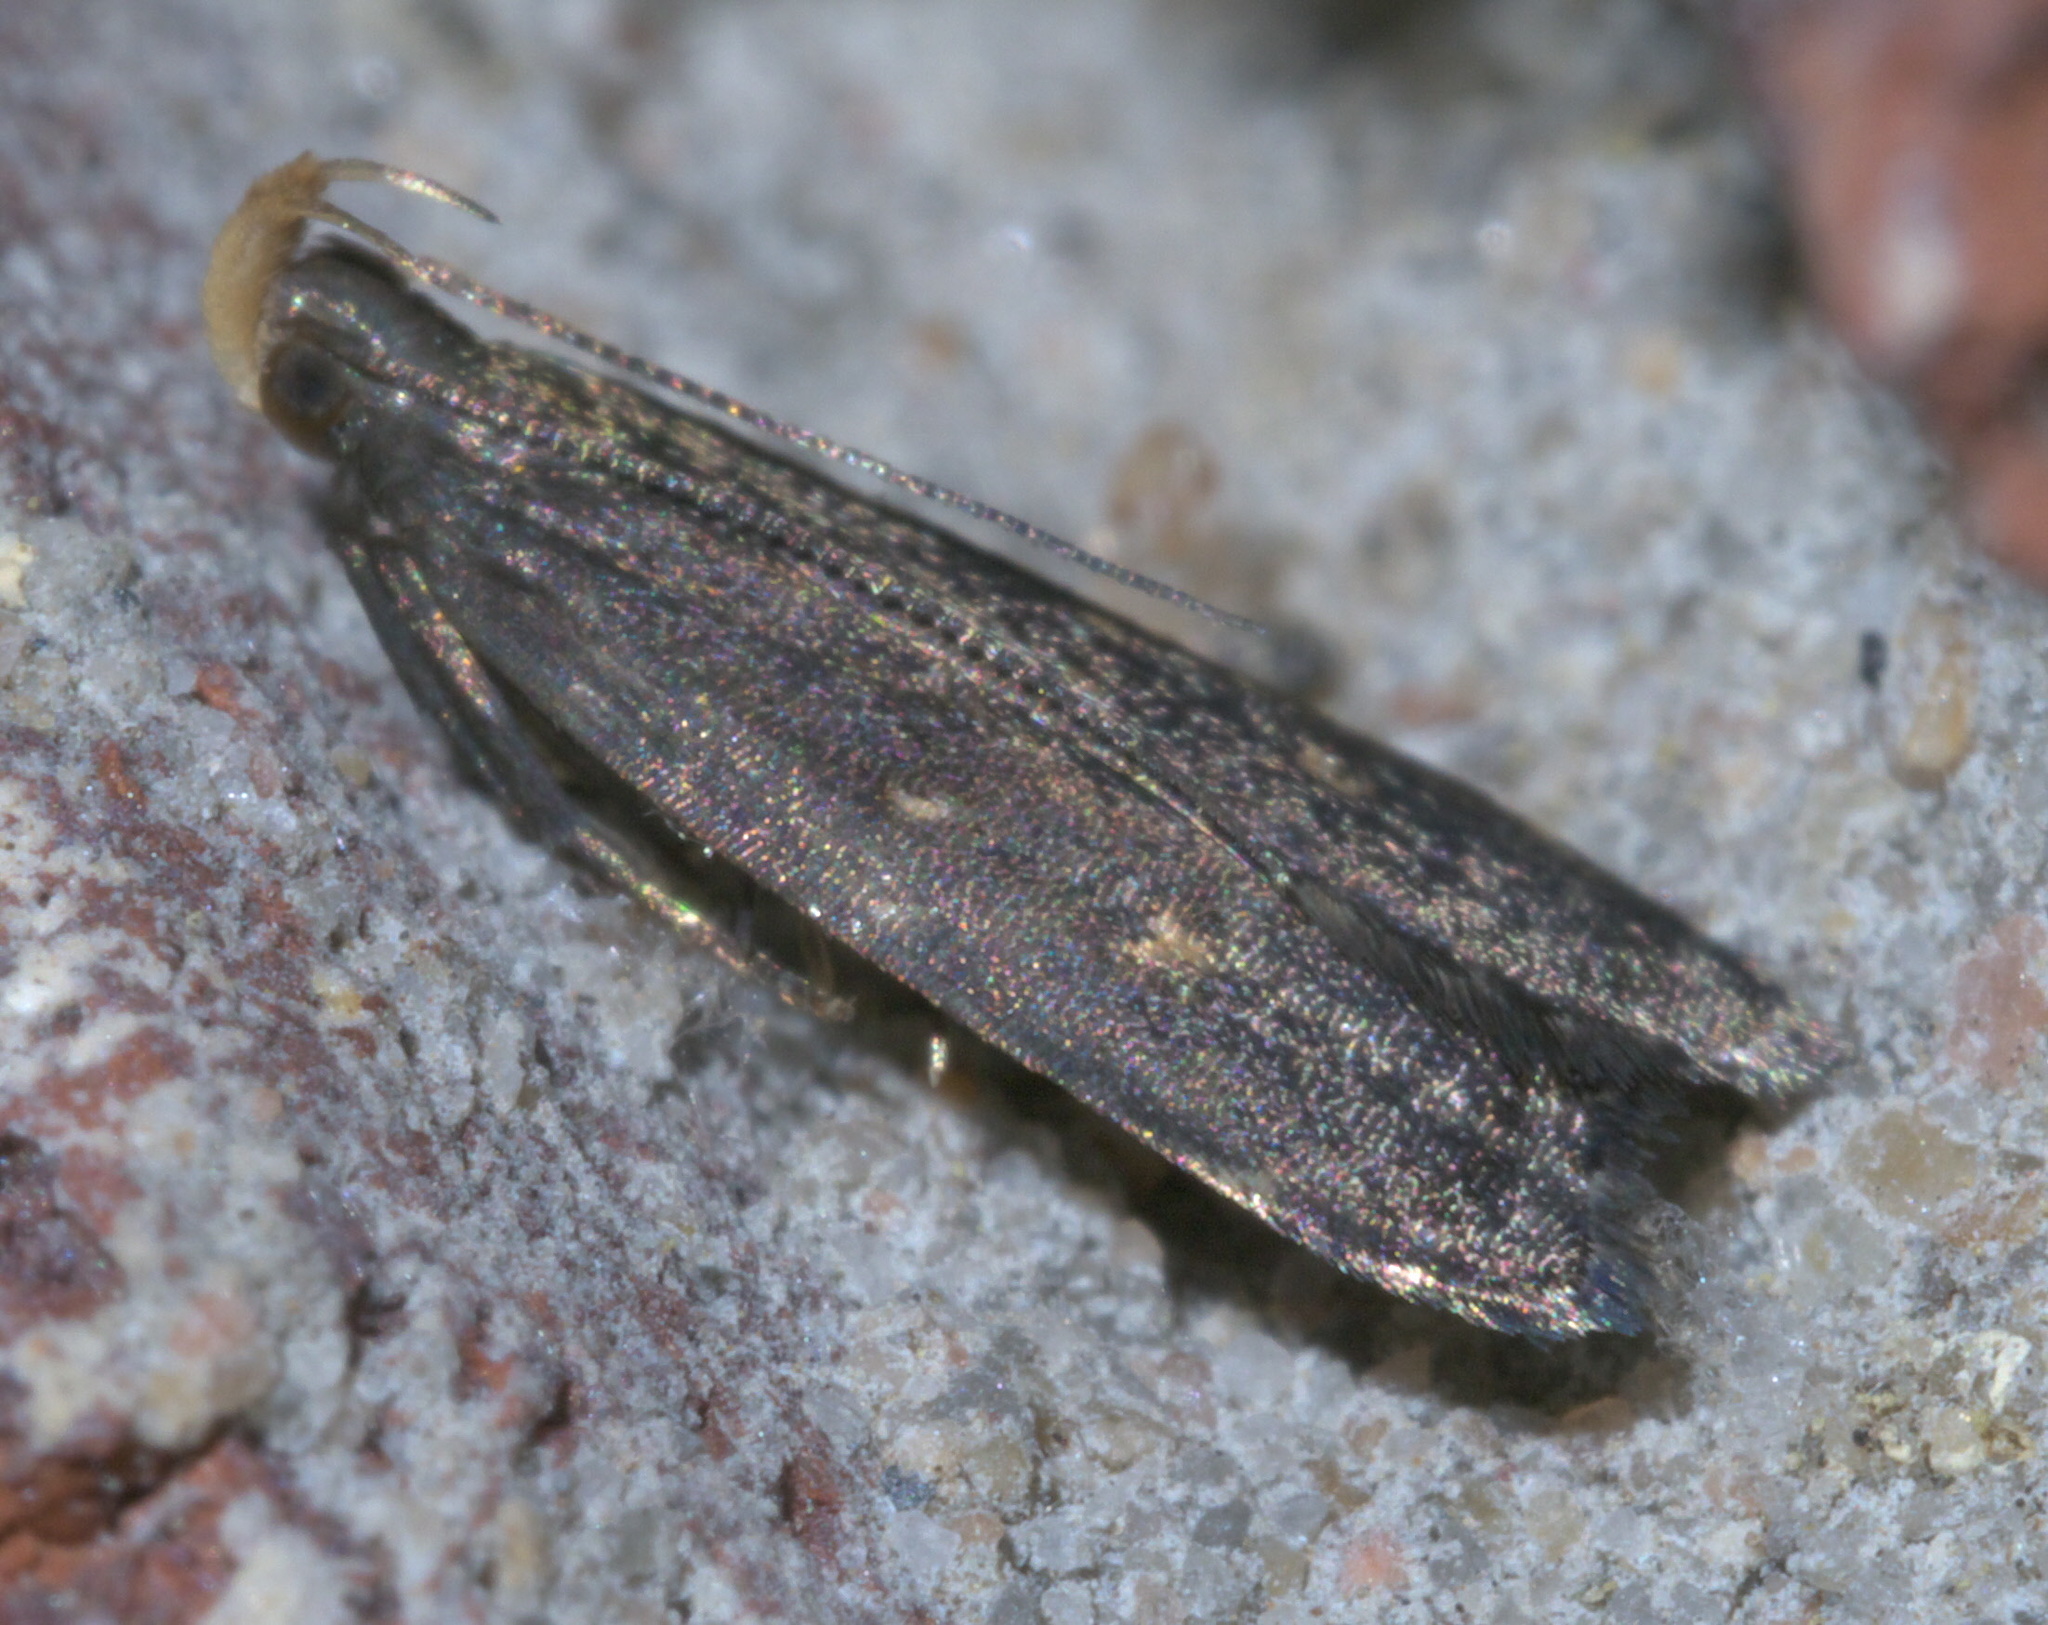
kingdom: Animalia
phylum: Arthropoda
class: Insecta
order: Lepidoptera
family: Gelechiidae
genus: Dichomeris
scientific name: Dichomeris juncidella
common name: Orange-dotted dichomeris moth
